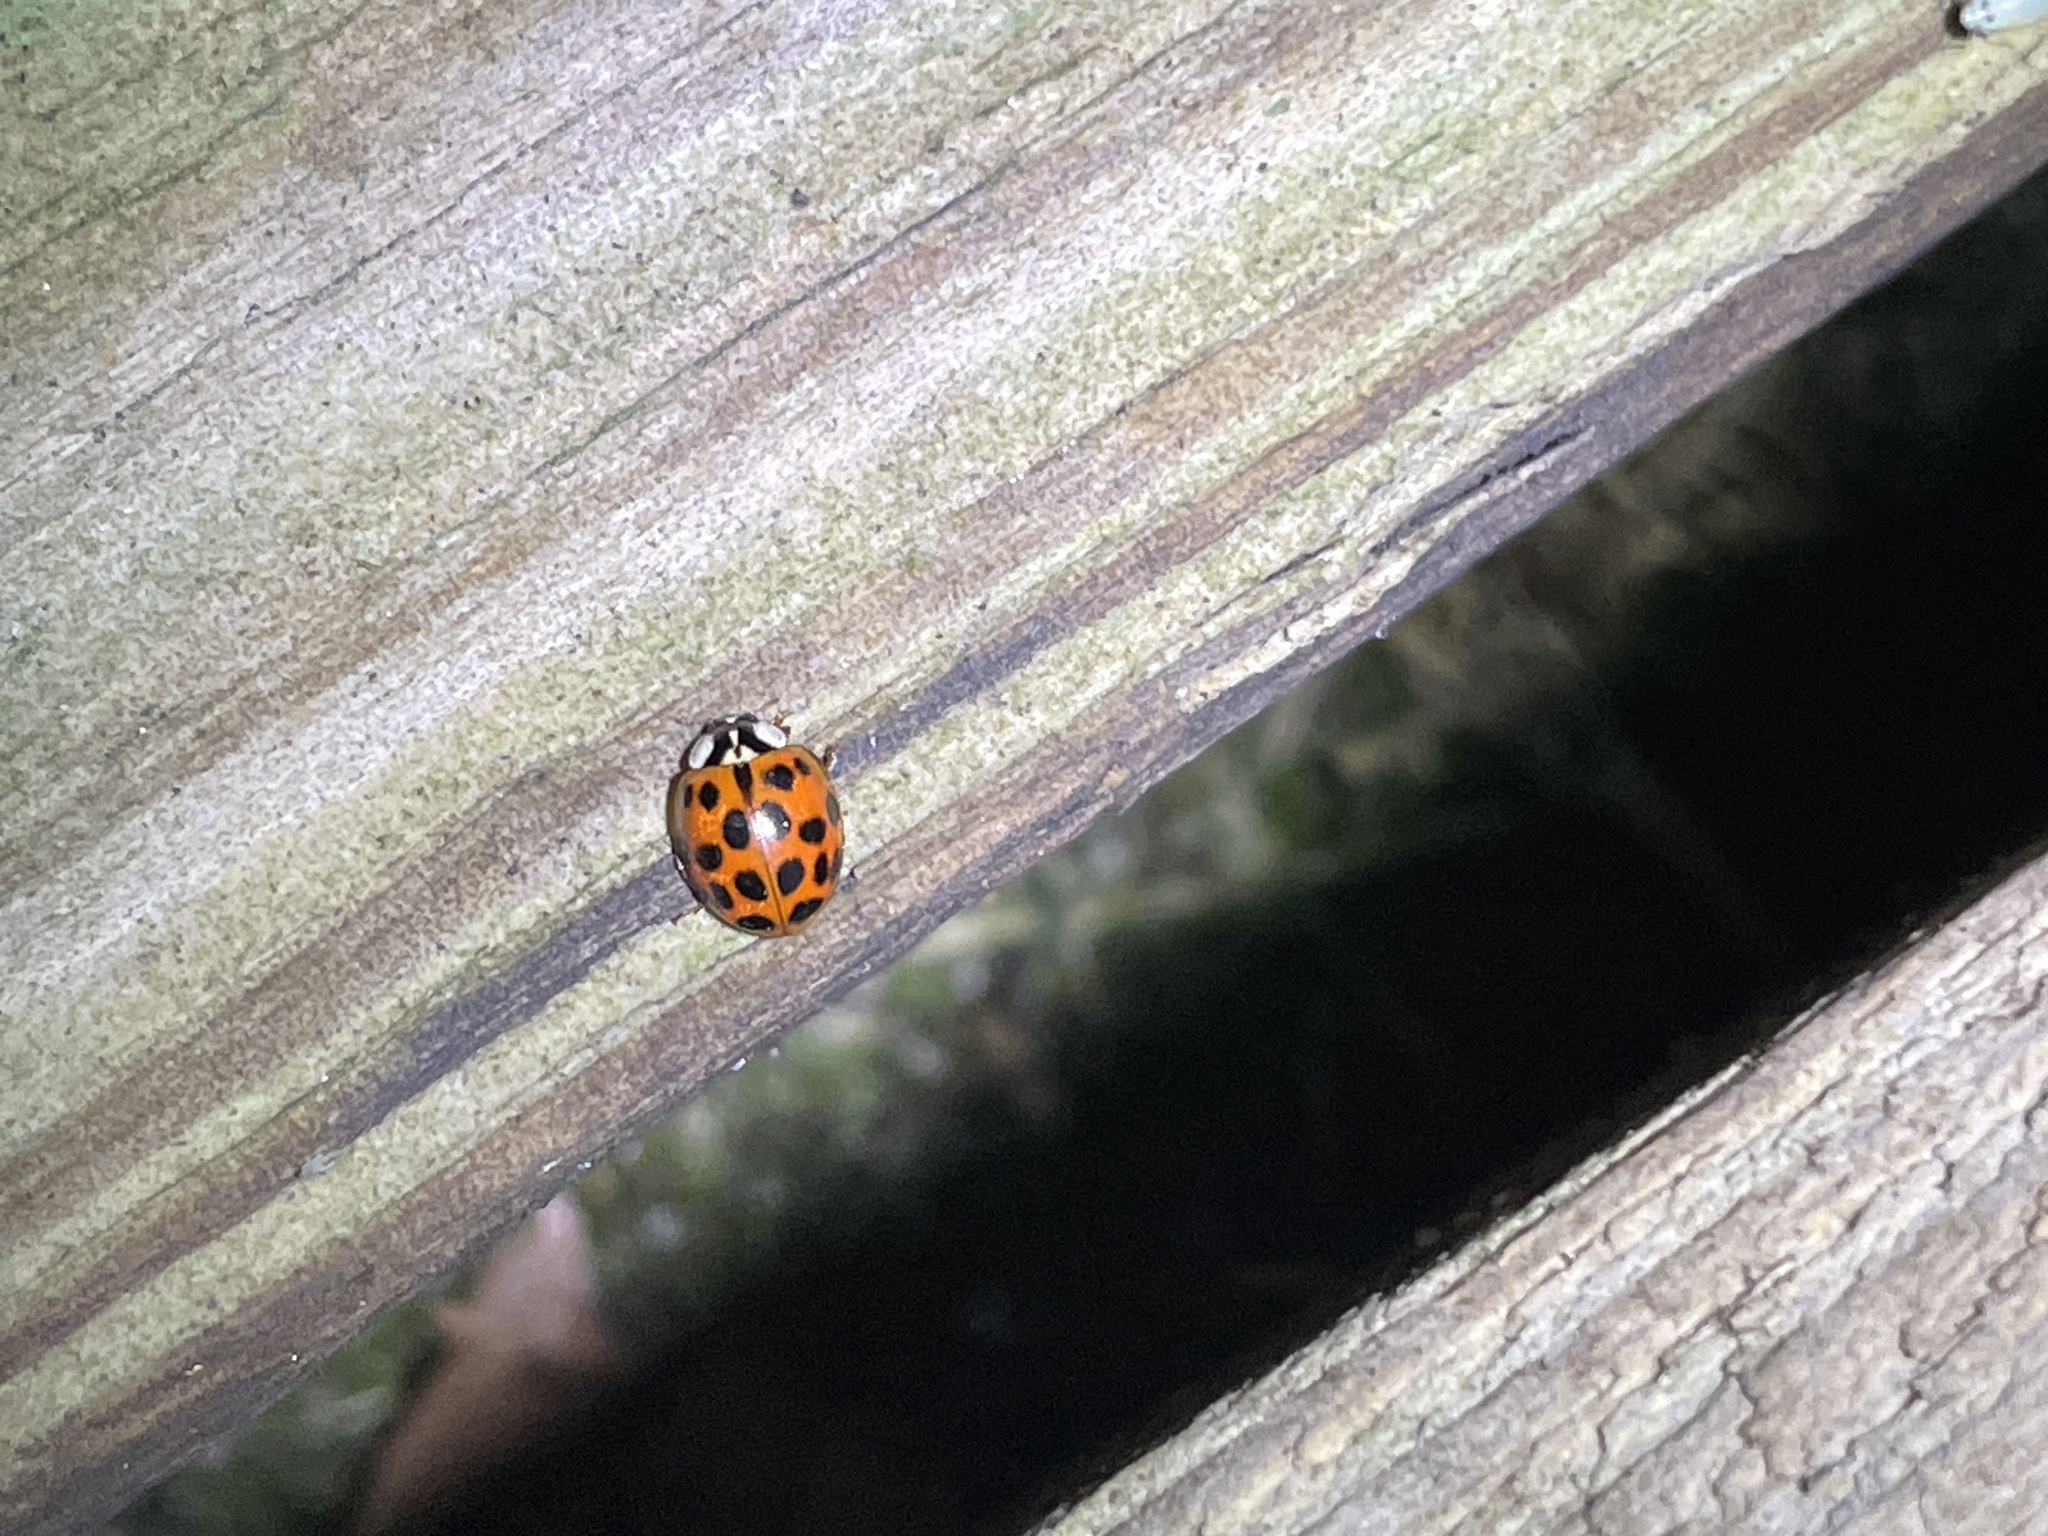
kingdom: Animalia
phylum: Arthropoda
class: Insecta
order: Coleoptera
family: Coccinellidae
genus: Harmonia
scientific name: Harmonia axyridis
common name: Harlequin ladybird
